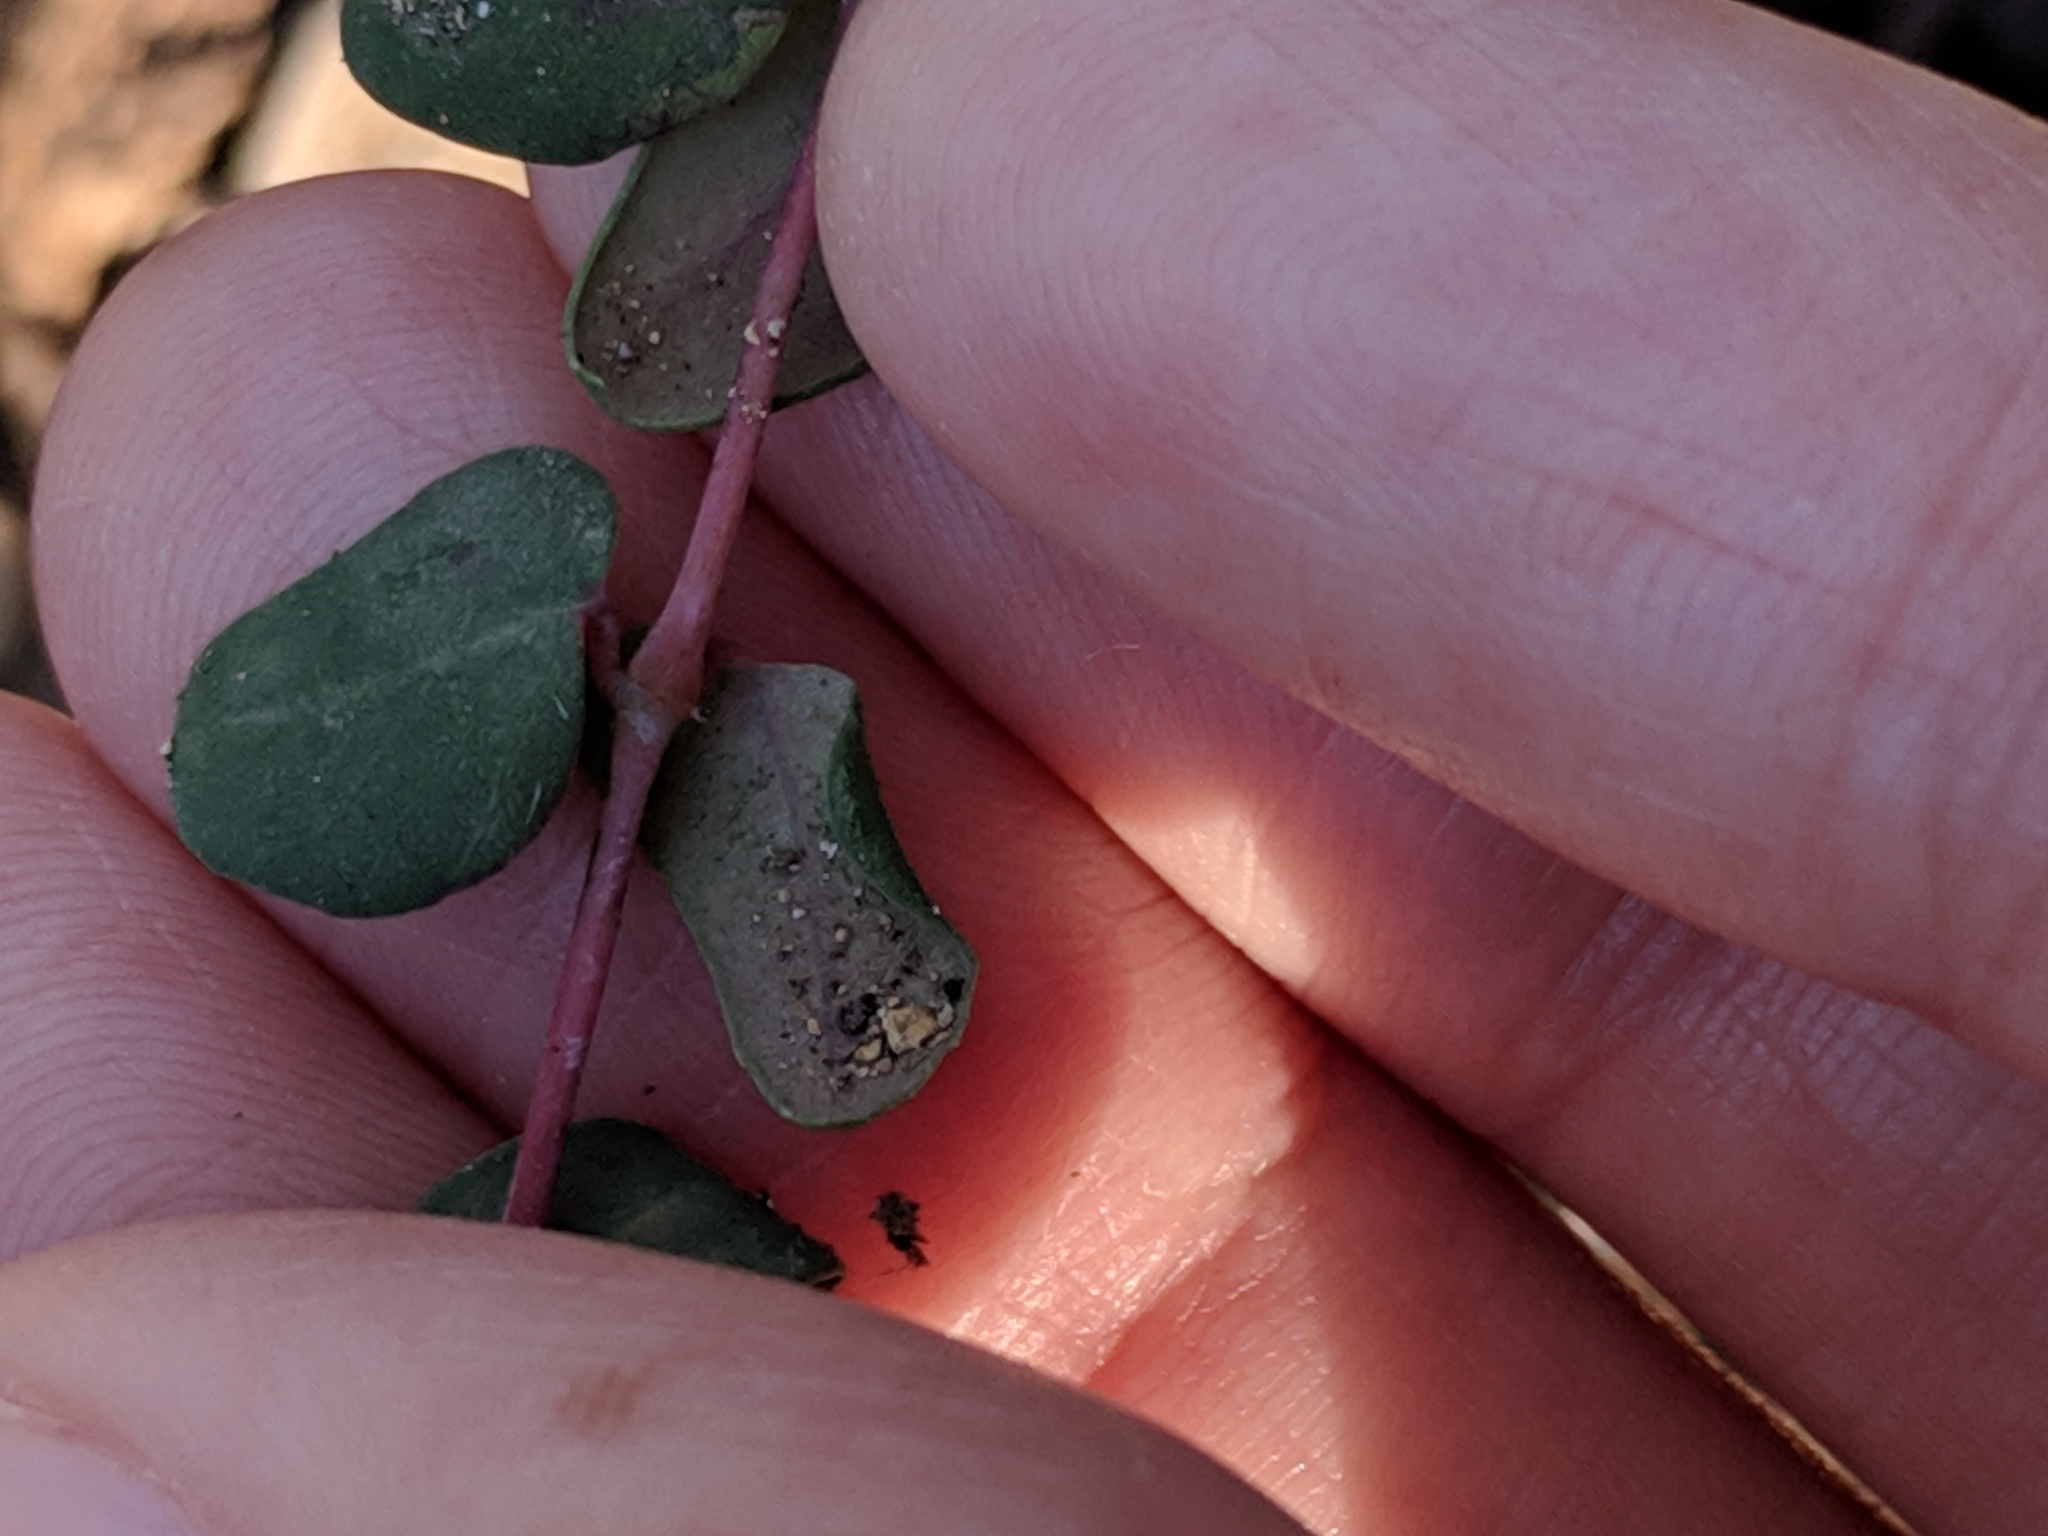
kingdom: Plantae
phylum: Tracheophyta
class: Magnoliopsida
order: Malpighiales
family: Euphorbiaceae
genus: Euphorbia
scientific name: Euphorbia villifera
